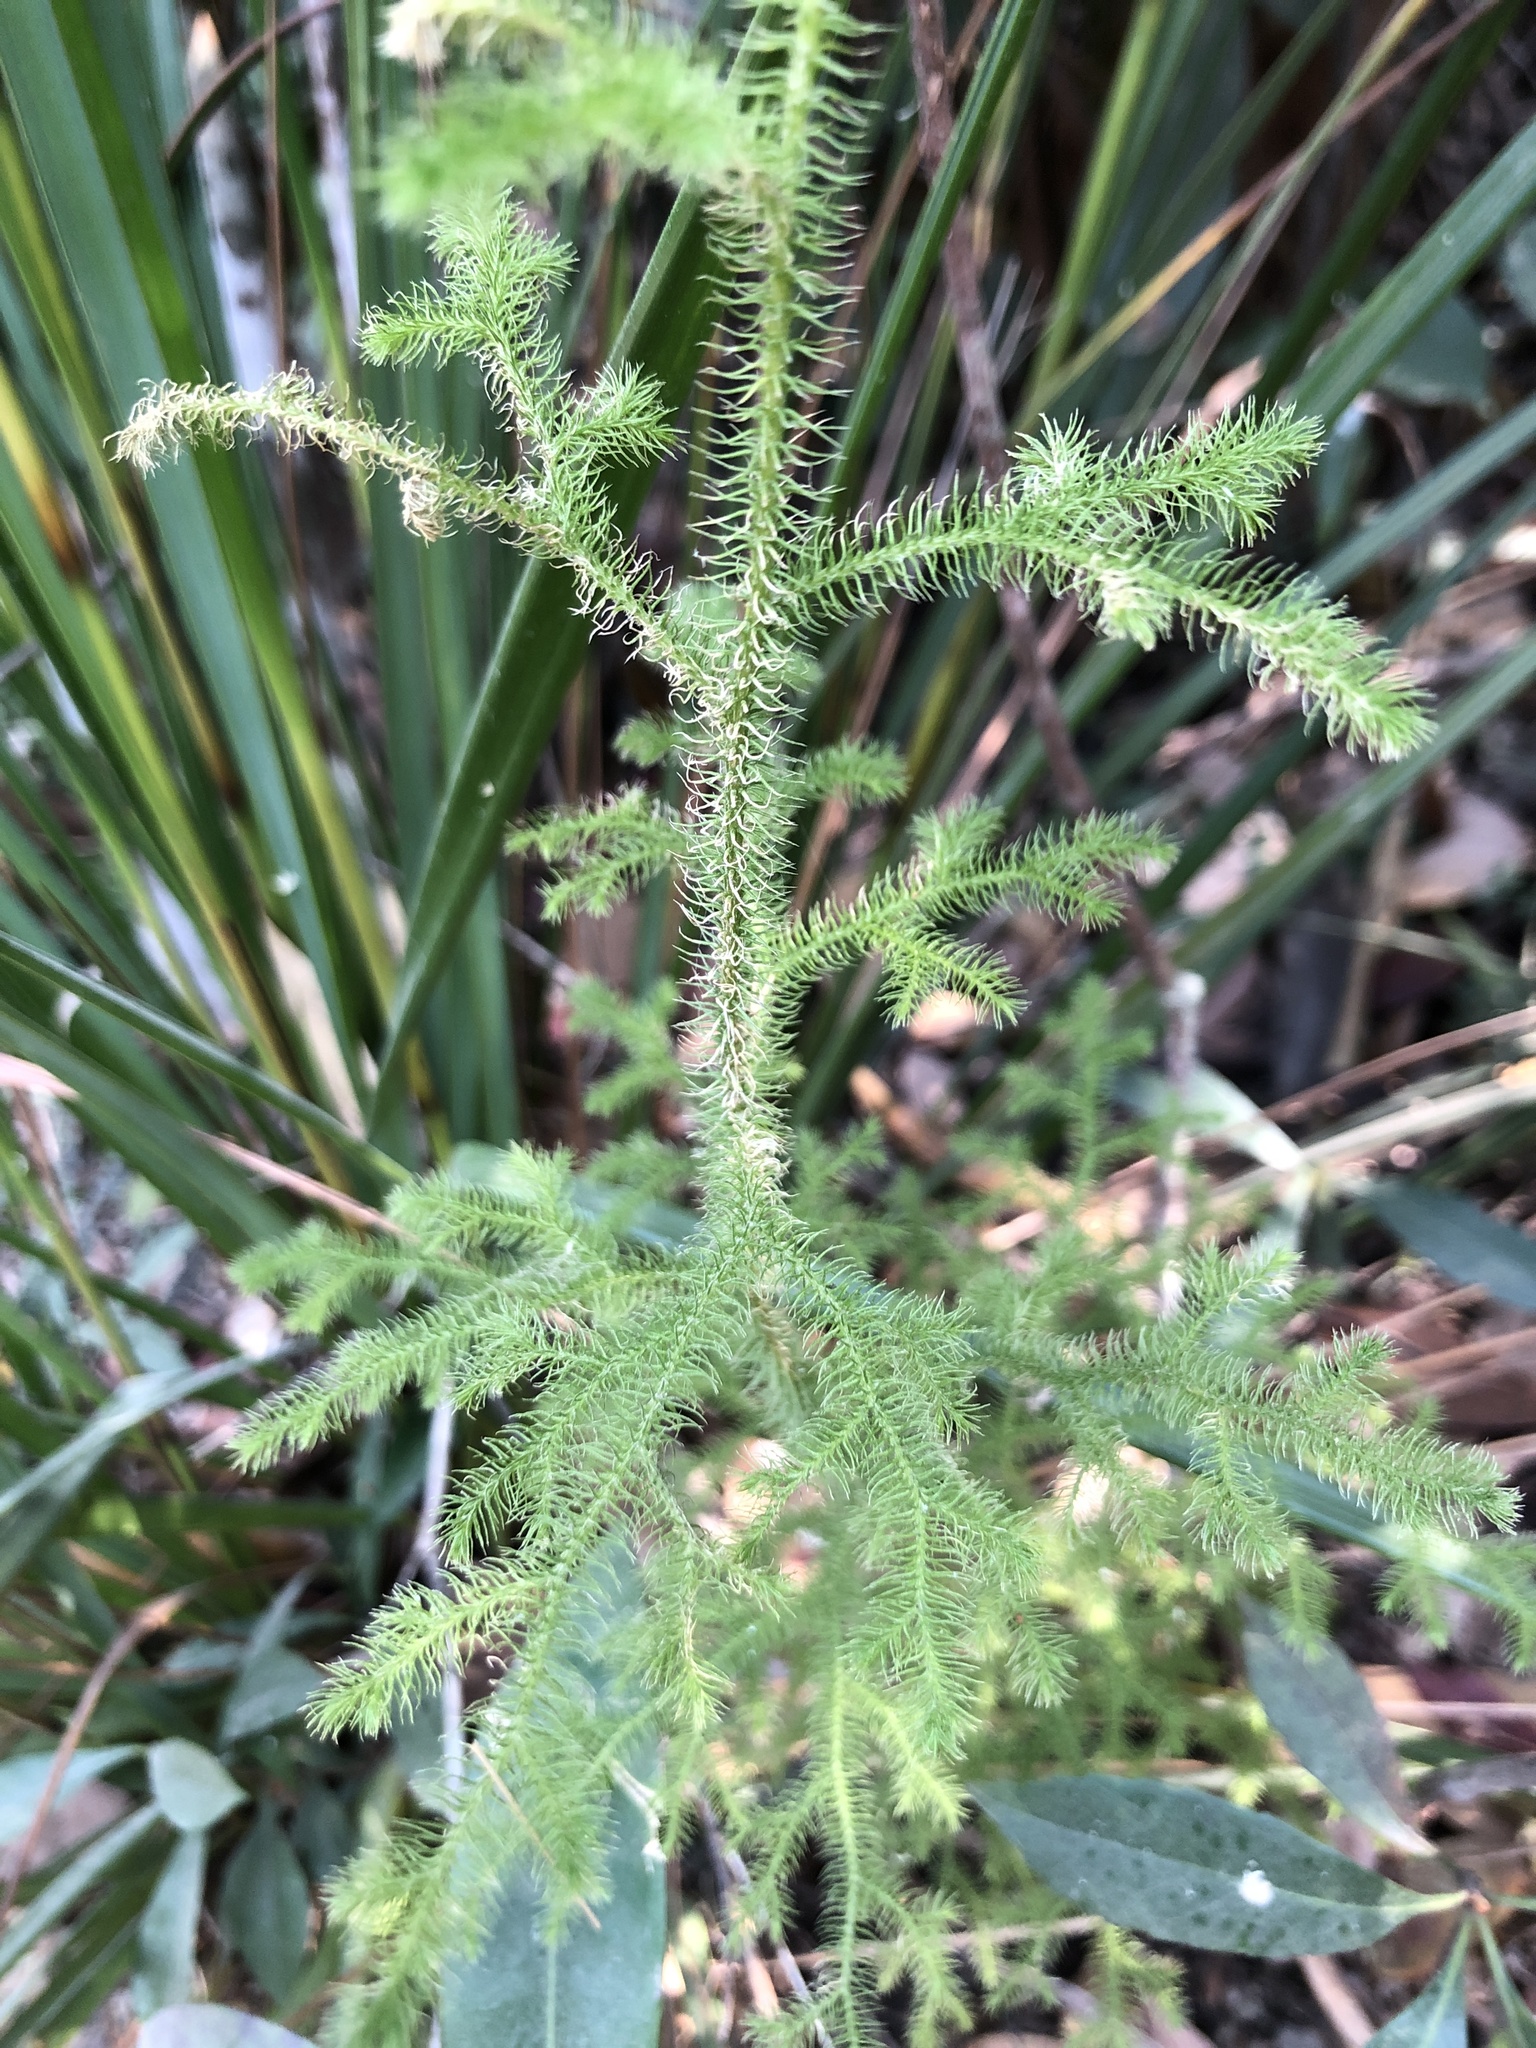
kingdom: Plantae
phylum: Tracheophyta
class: Lycopodiopsida
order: Lycopodiales
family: Lycopodiaceae
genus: Palhinhaea
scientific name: Palhinhaea cernua
